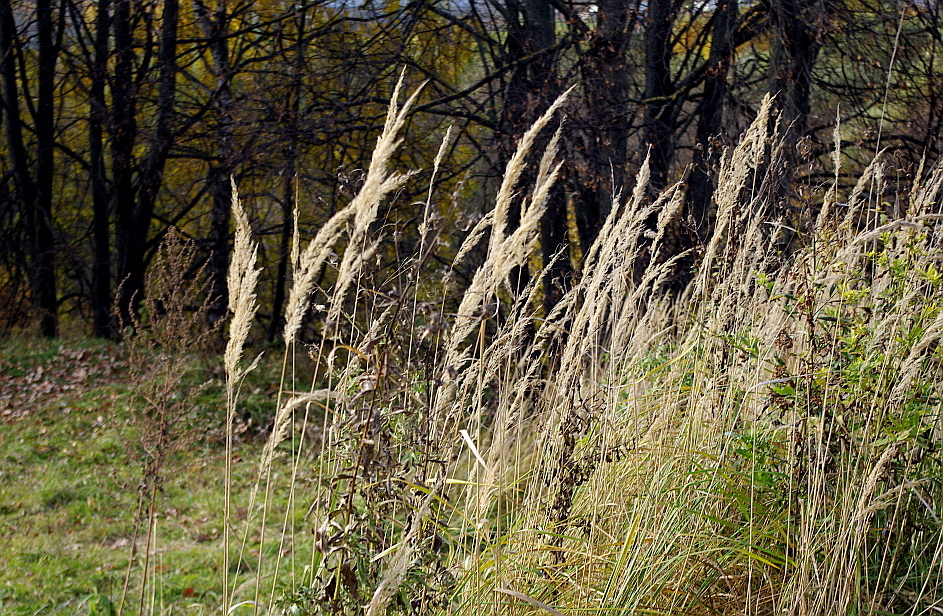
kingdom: Plantae
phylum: Tracheophyta
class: Liliopsida
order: Poales
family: Poaceae
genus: Calamagrostis
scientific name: Calamagrostis epigejos
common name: Wood small-reed
